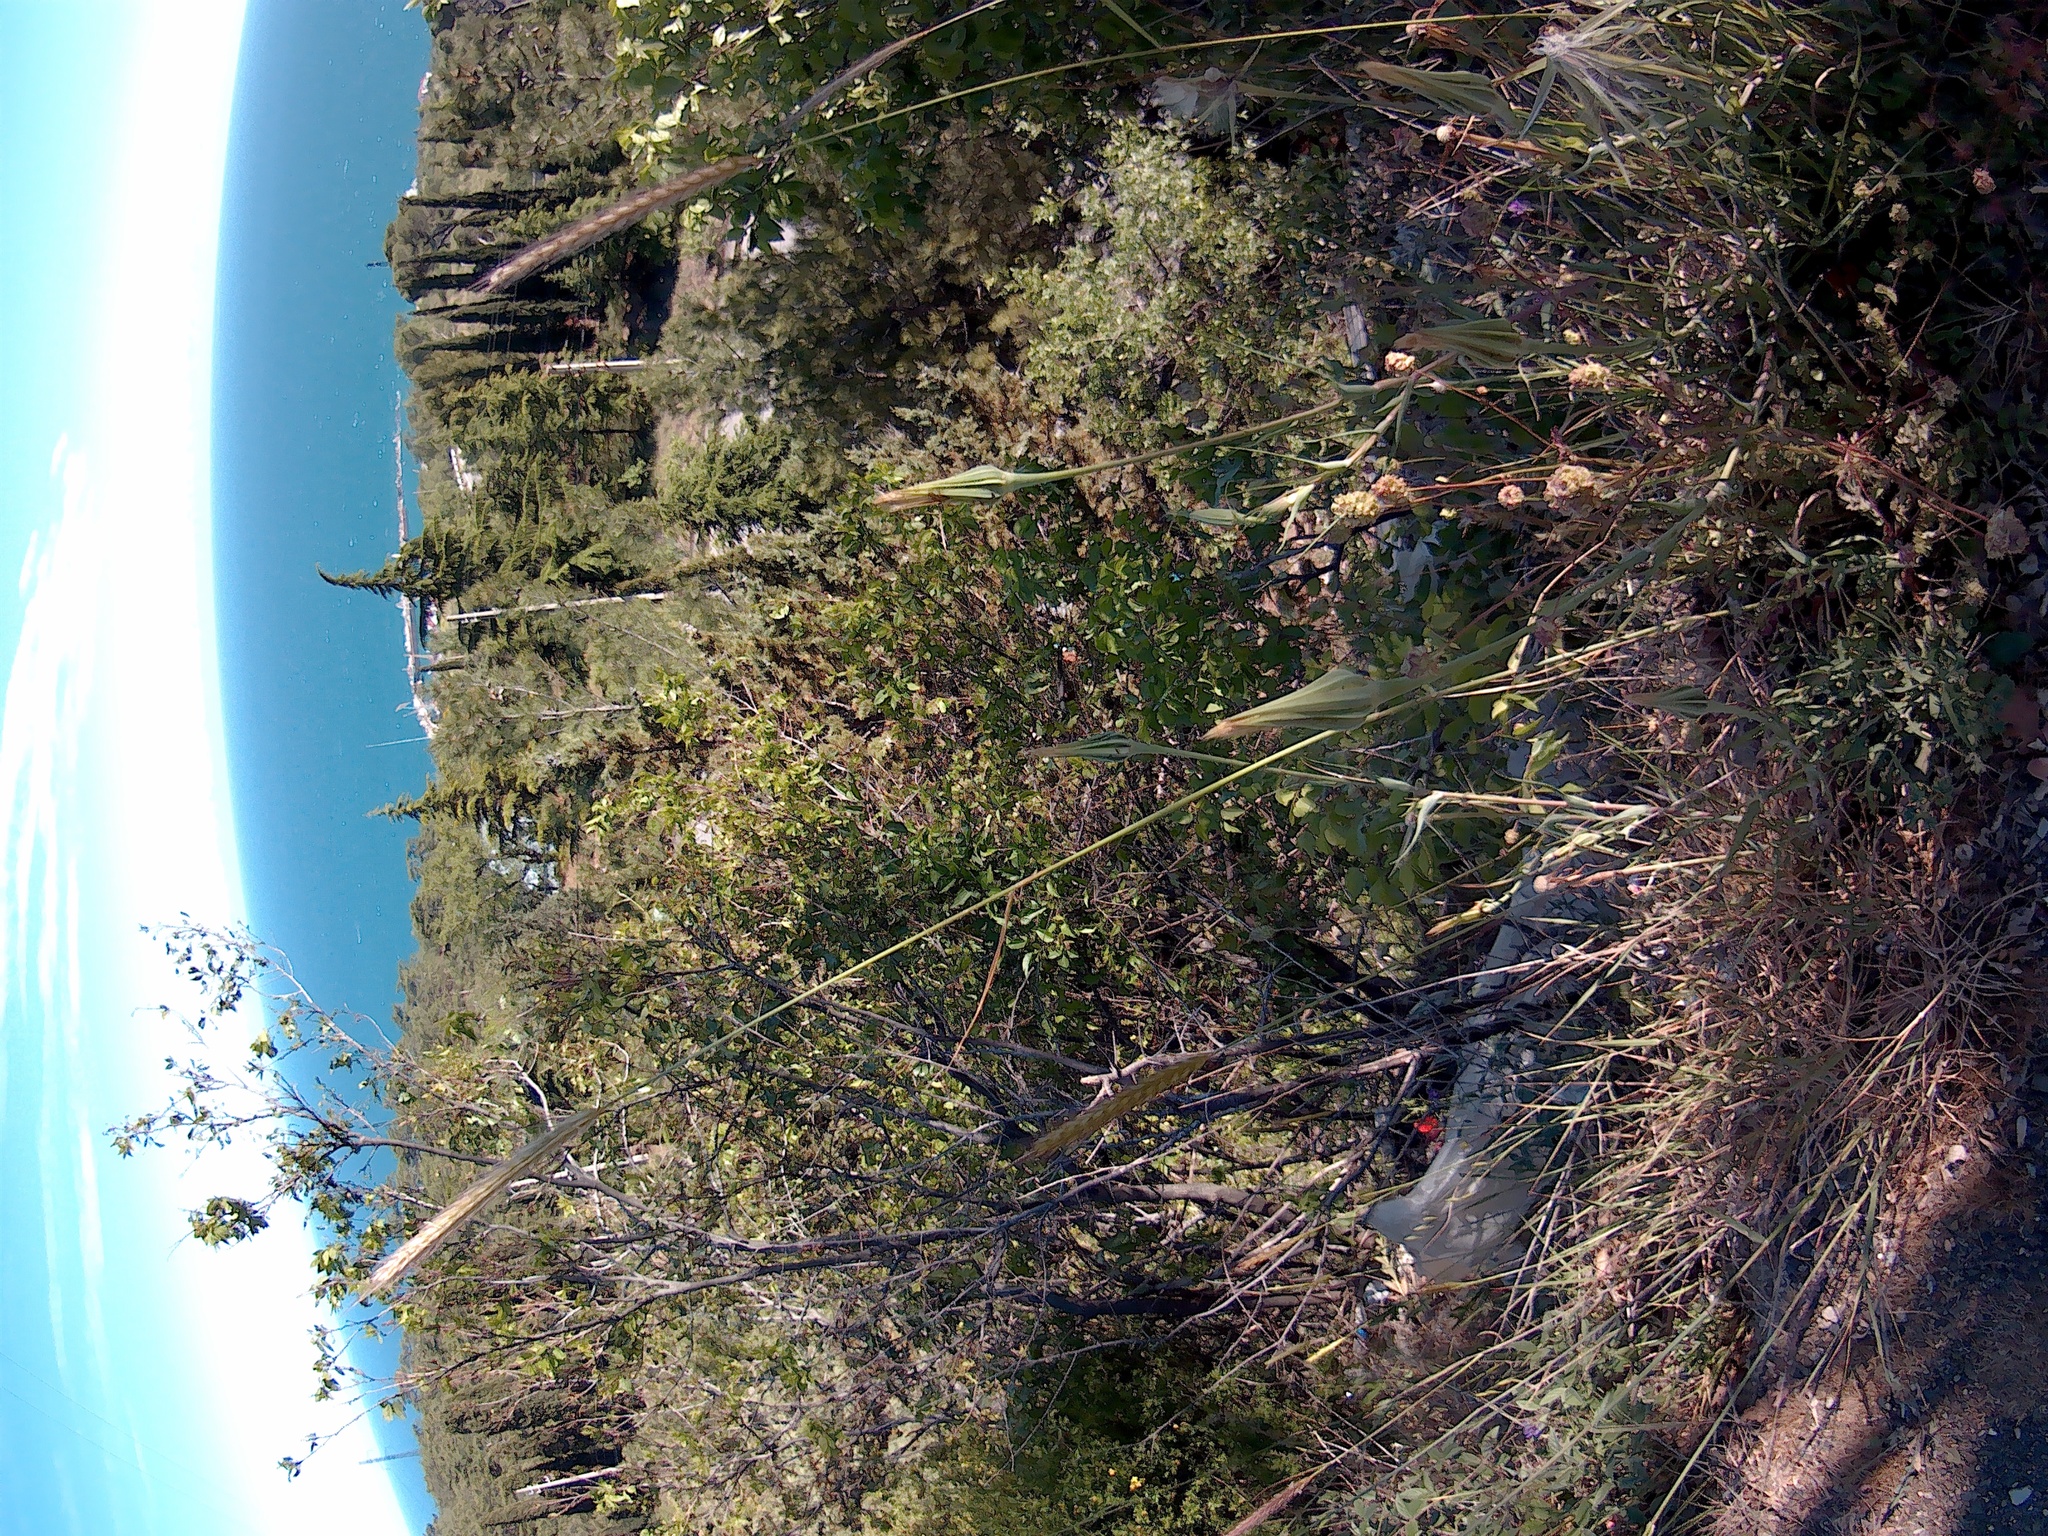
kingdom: Plantae
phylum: Tracheophyta
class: Magnoliopsida
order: Asterales
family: Asteraceae
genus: Tragopogon
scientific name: Tragopogon dubius
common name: Yellow salsify
